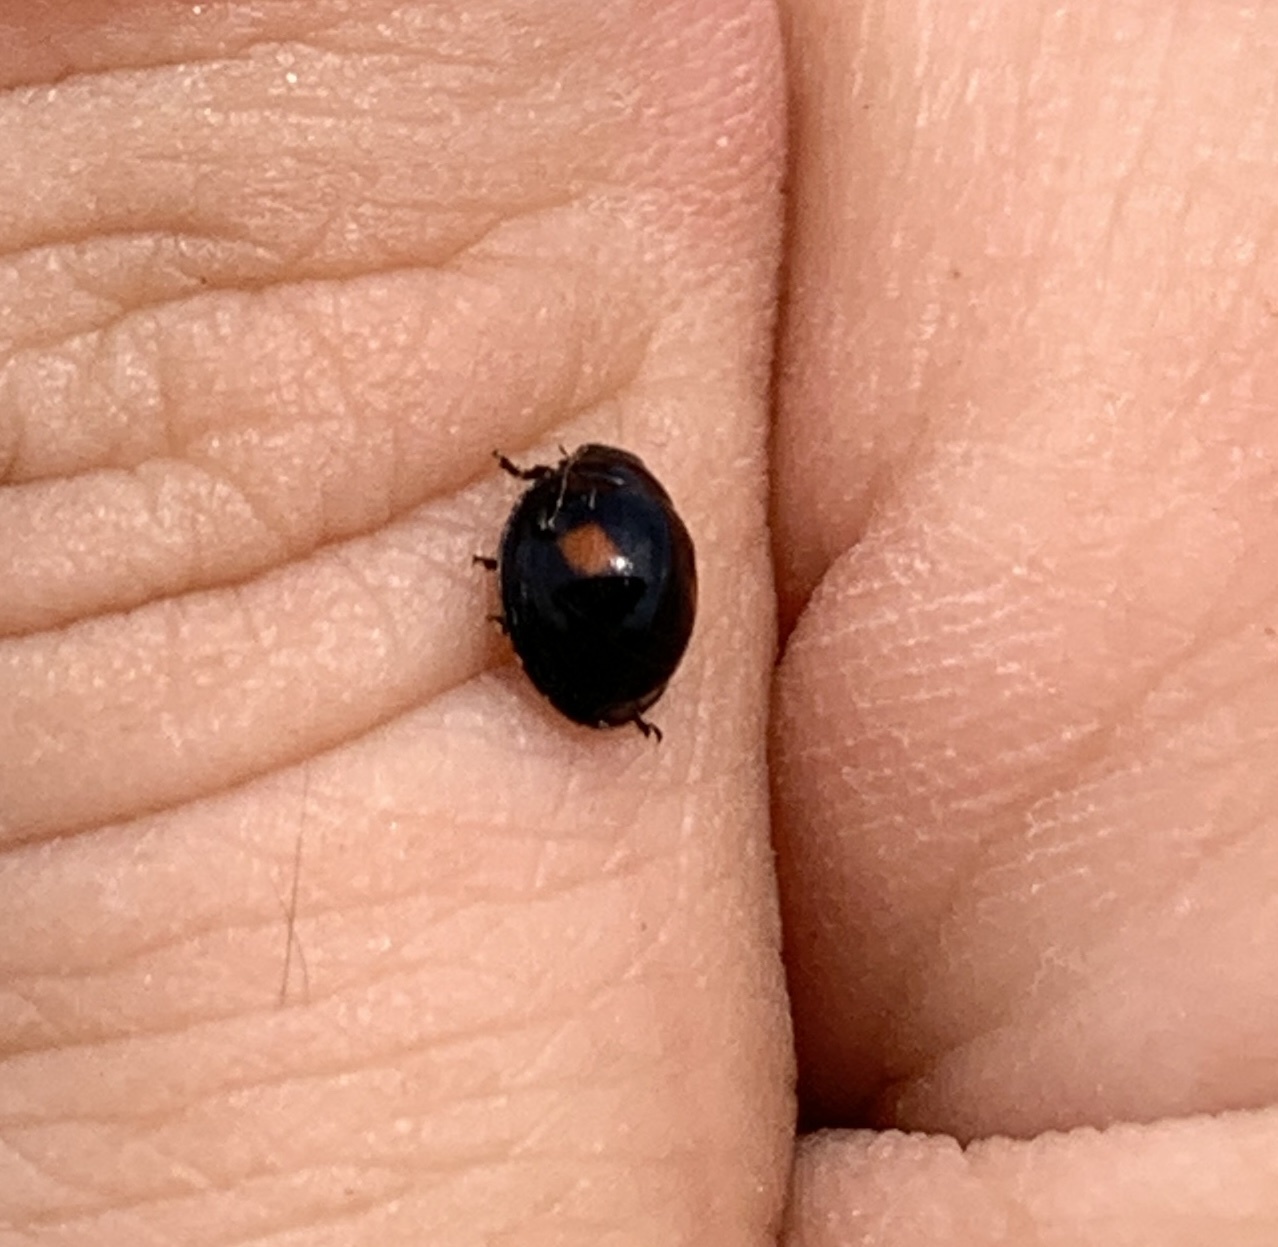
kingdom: Animalia
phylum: Arthropoda
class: Insecta
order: Coleoptera
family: Coccinellidae
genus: Chilocorus
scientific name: Chilocorus stigma
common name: Twicestabbed lady beetle
